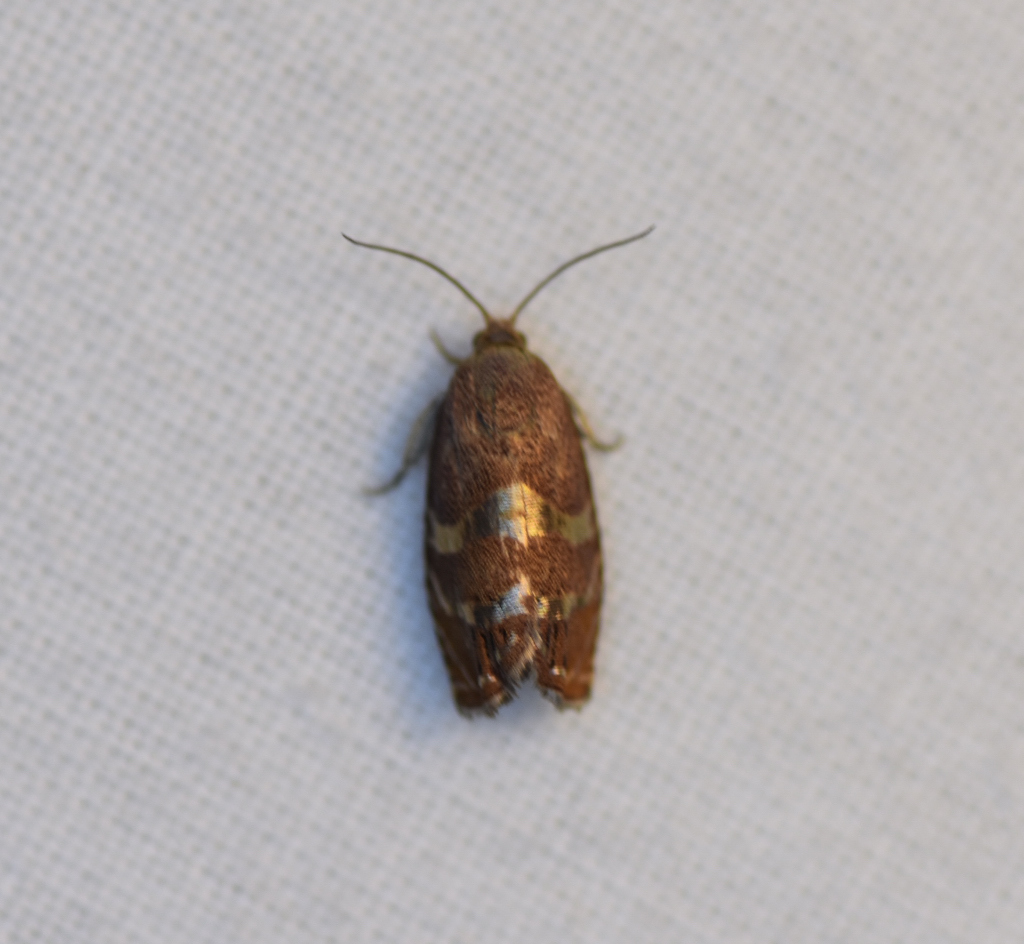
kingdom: Animalia
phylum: Arthropoda
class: Insecta
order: Lepidoptera
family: Tortricidae
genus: Cydia
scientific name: Cydia latiferreana
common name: Filbertworm moth
